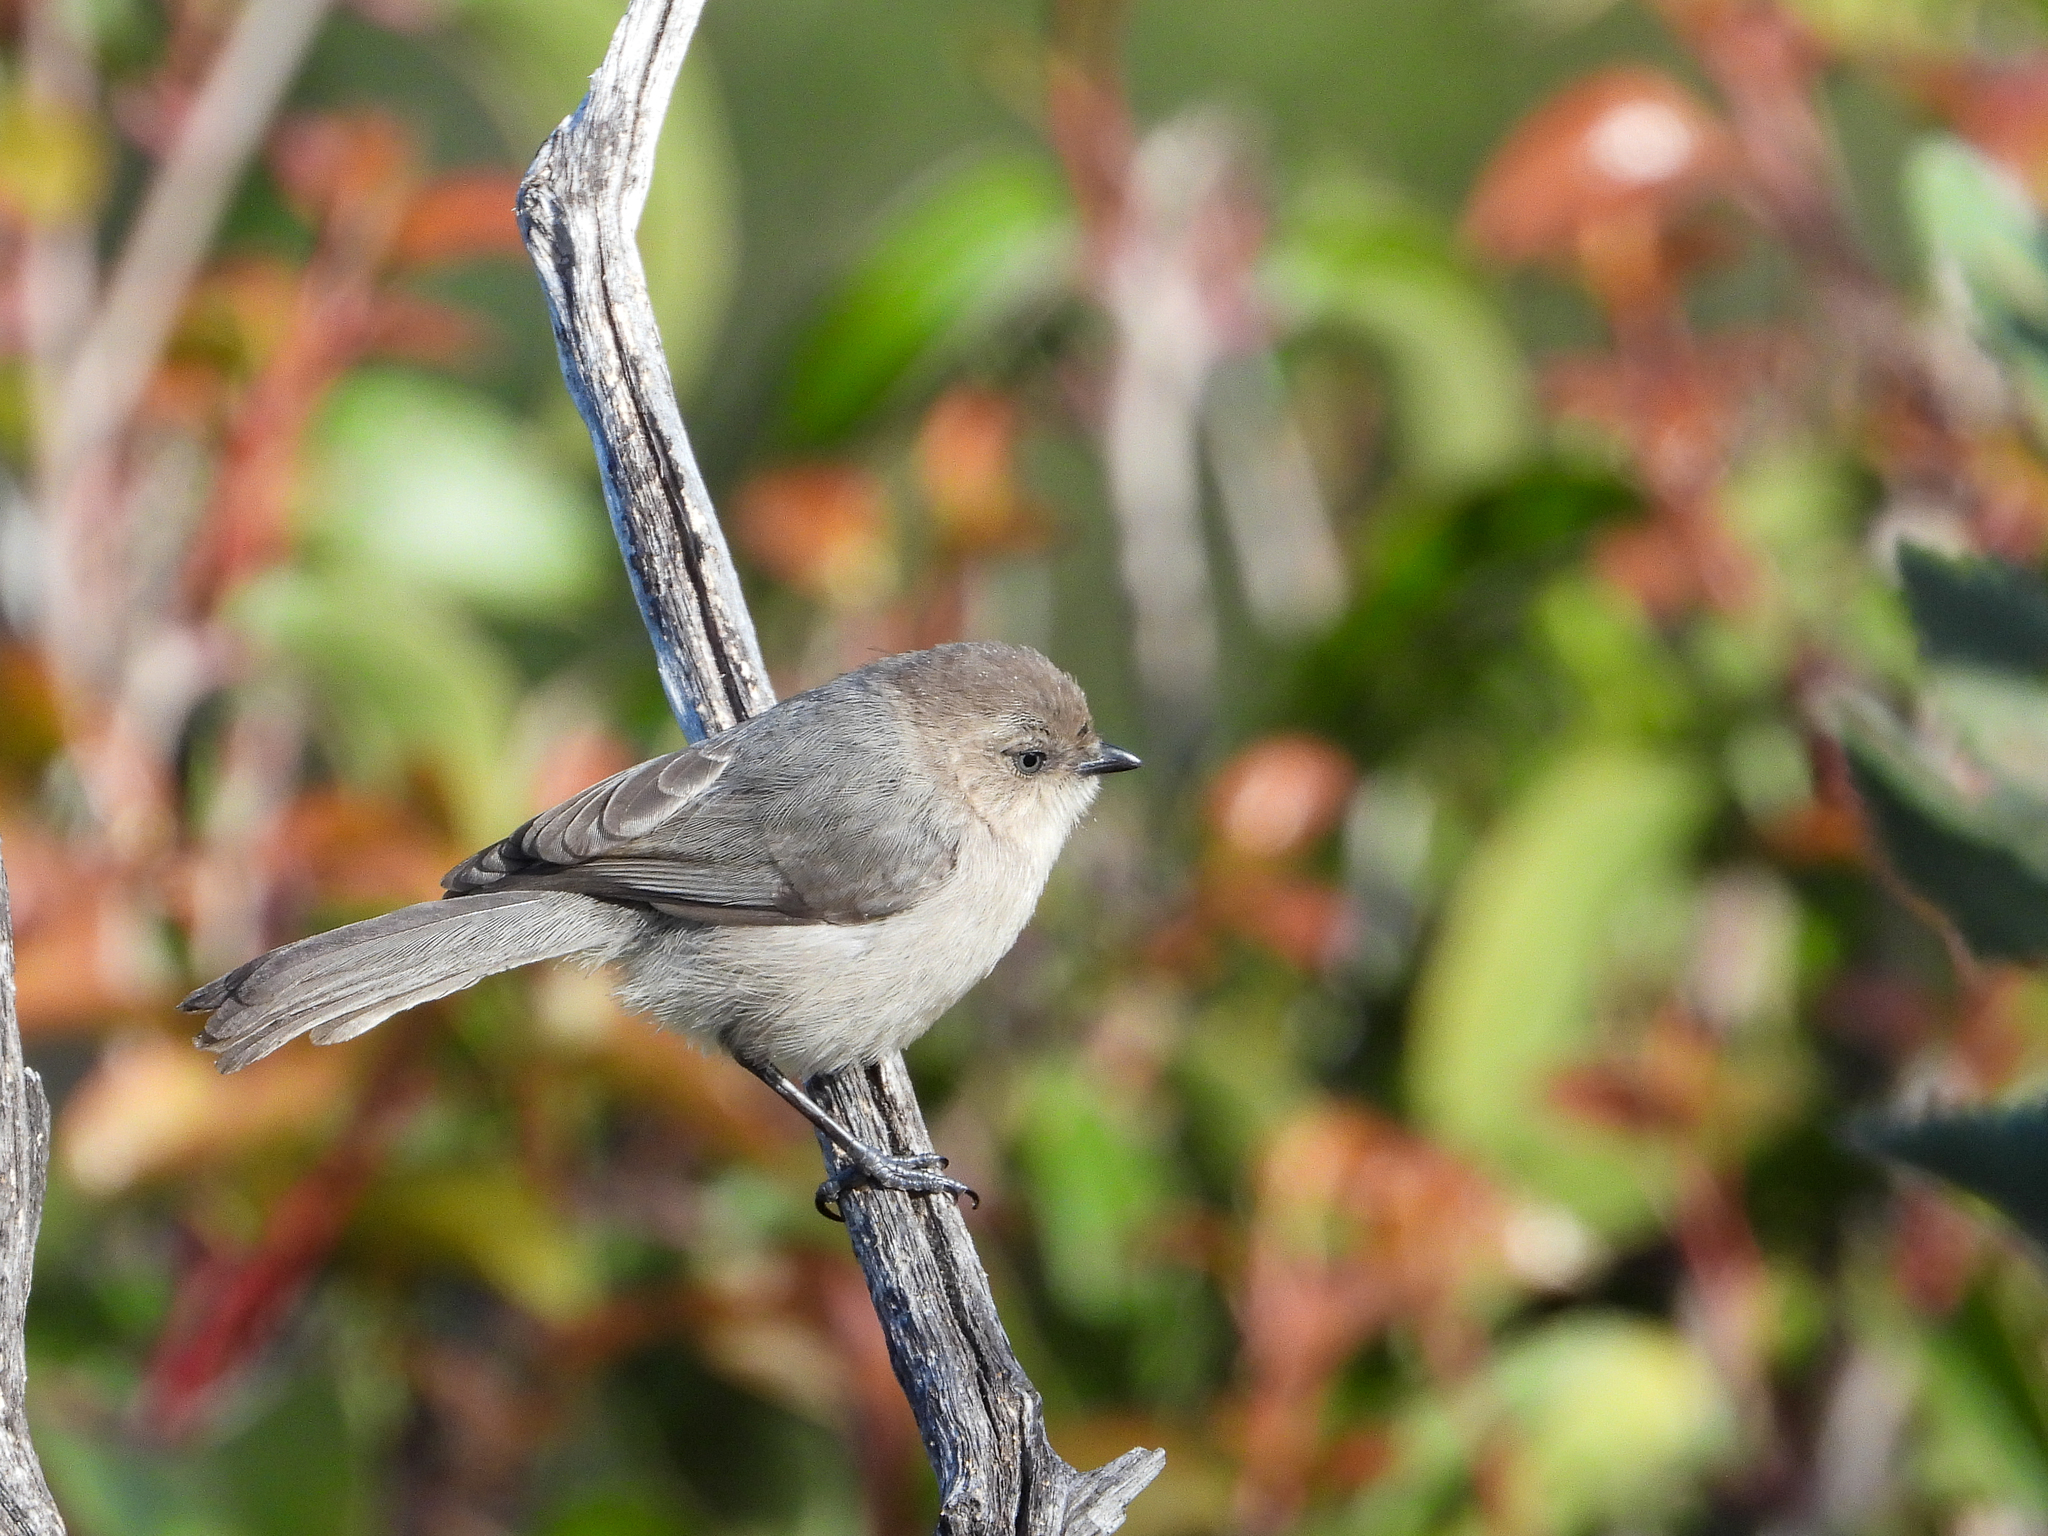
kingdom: Animalia
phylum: Chordata
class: Aves
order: Passeriformes
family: Aegithalidae
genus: Psaltriparus
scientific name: Psaltriparus minimus
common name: American bushtit
